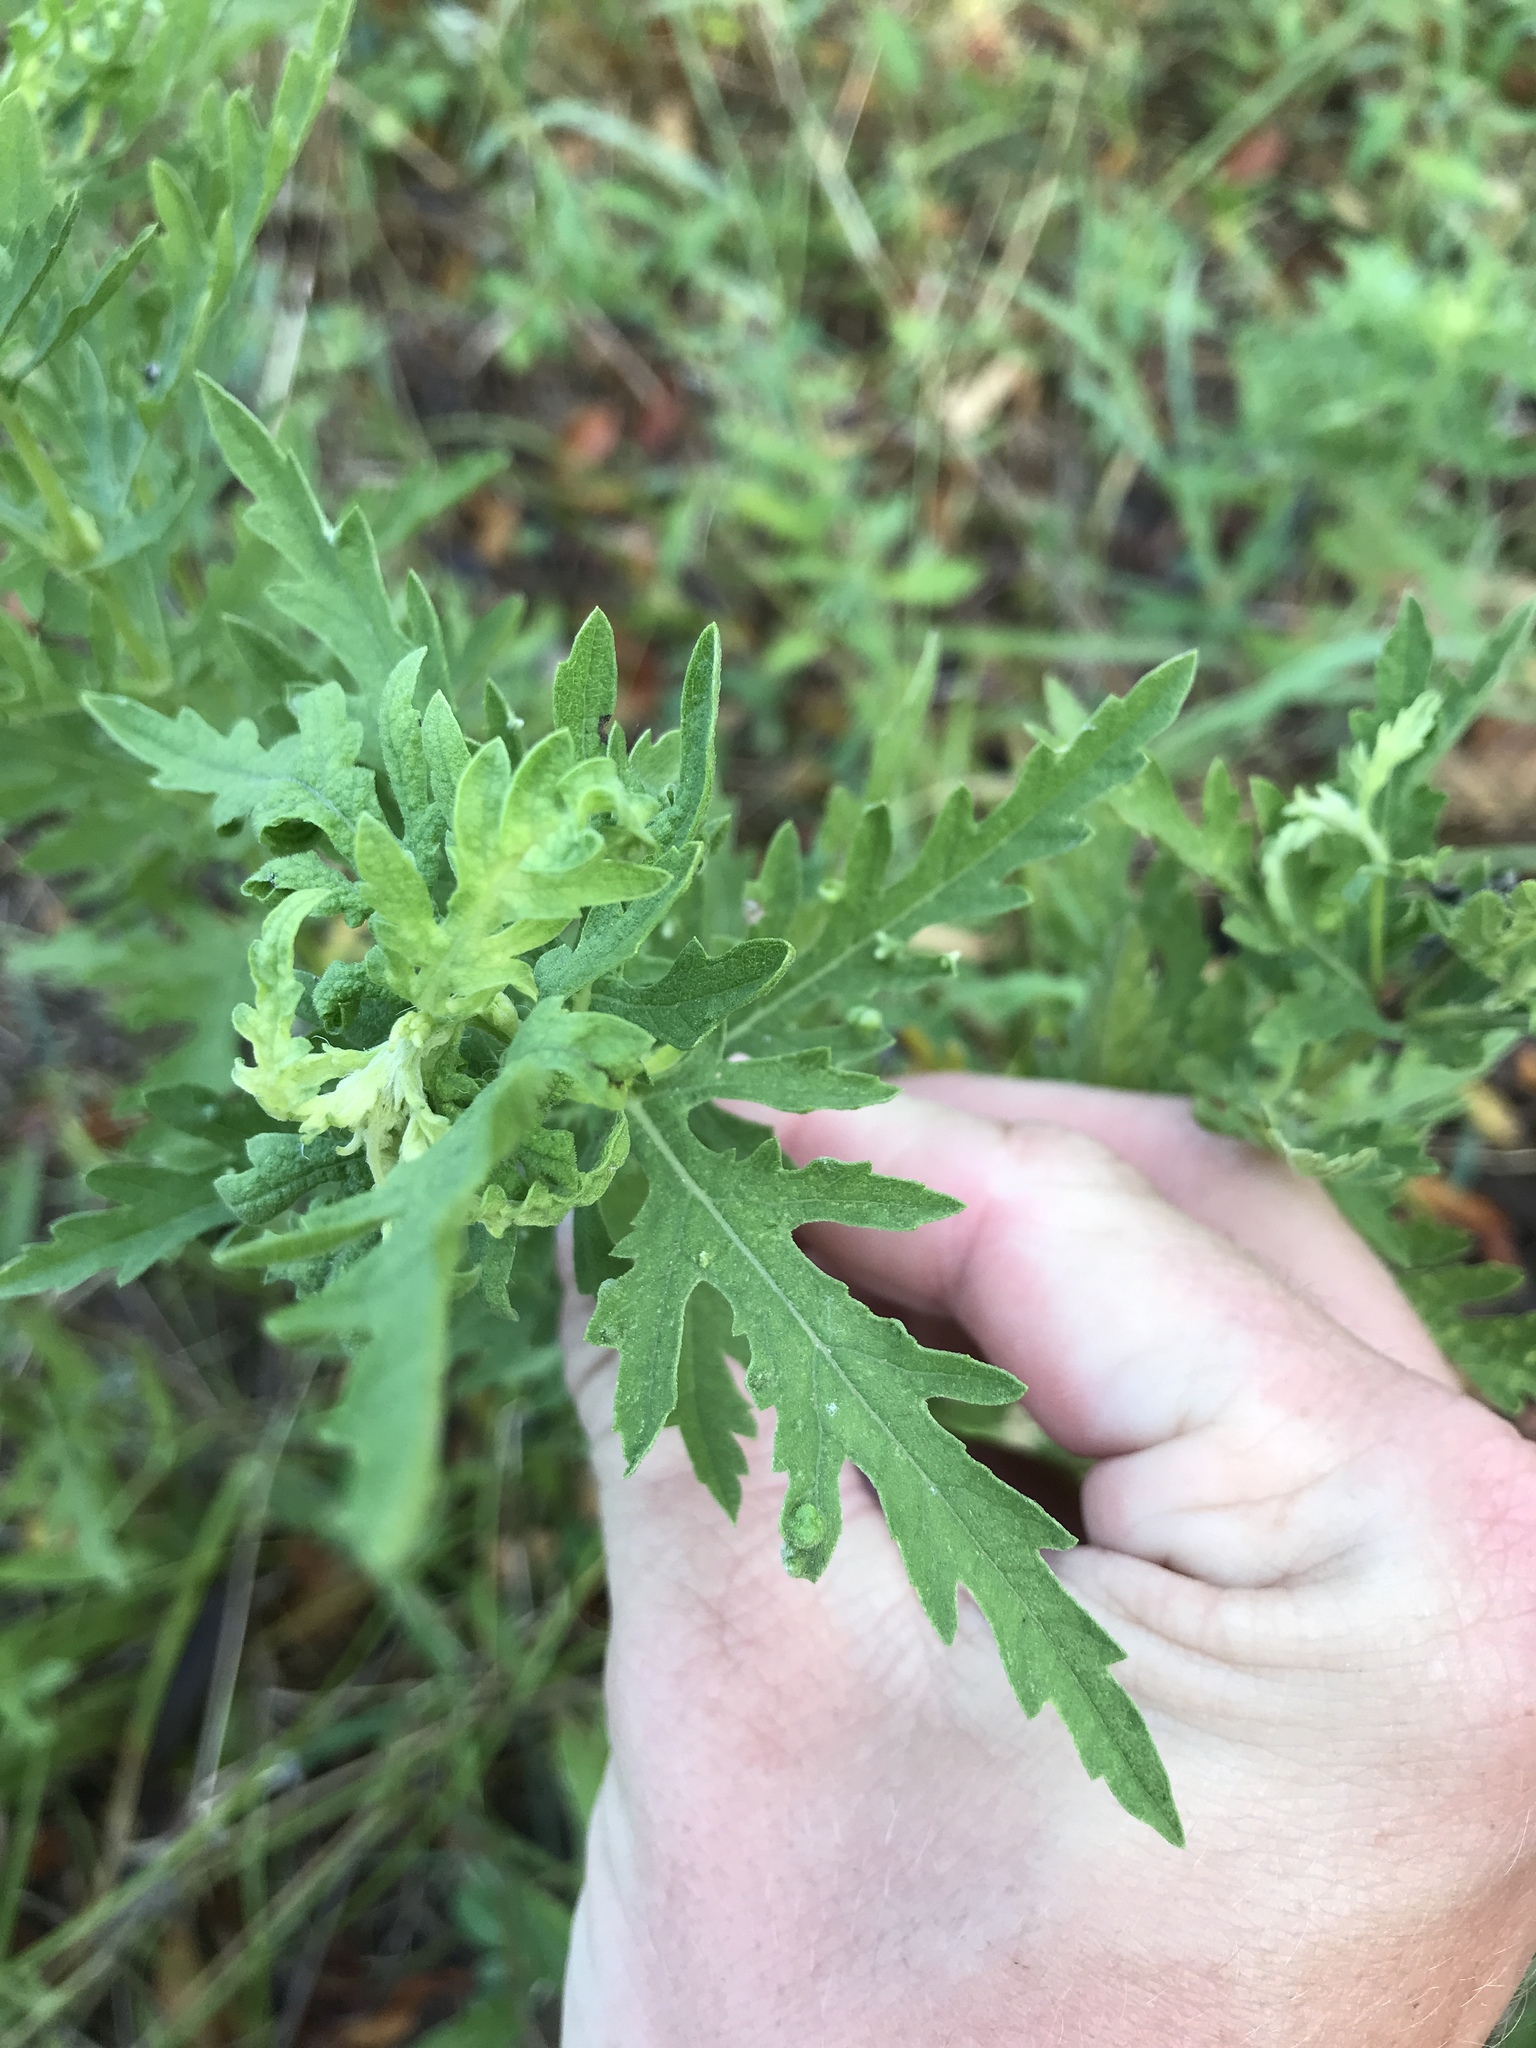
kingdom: Plantae
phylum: Tracheophyta
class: Magnoliopsida
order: Asterales
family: Asteraceae
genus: Ambrosia
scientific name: Ambrosia psilostachya
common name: Perennial ragweed
